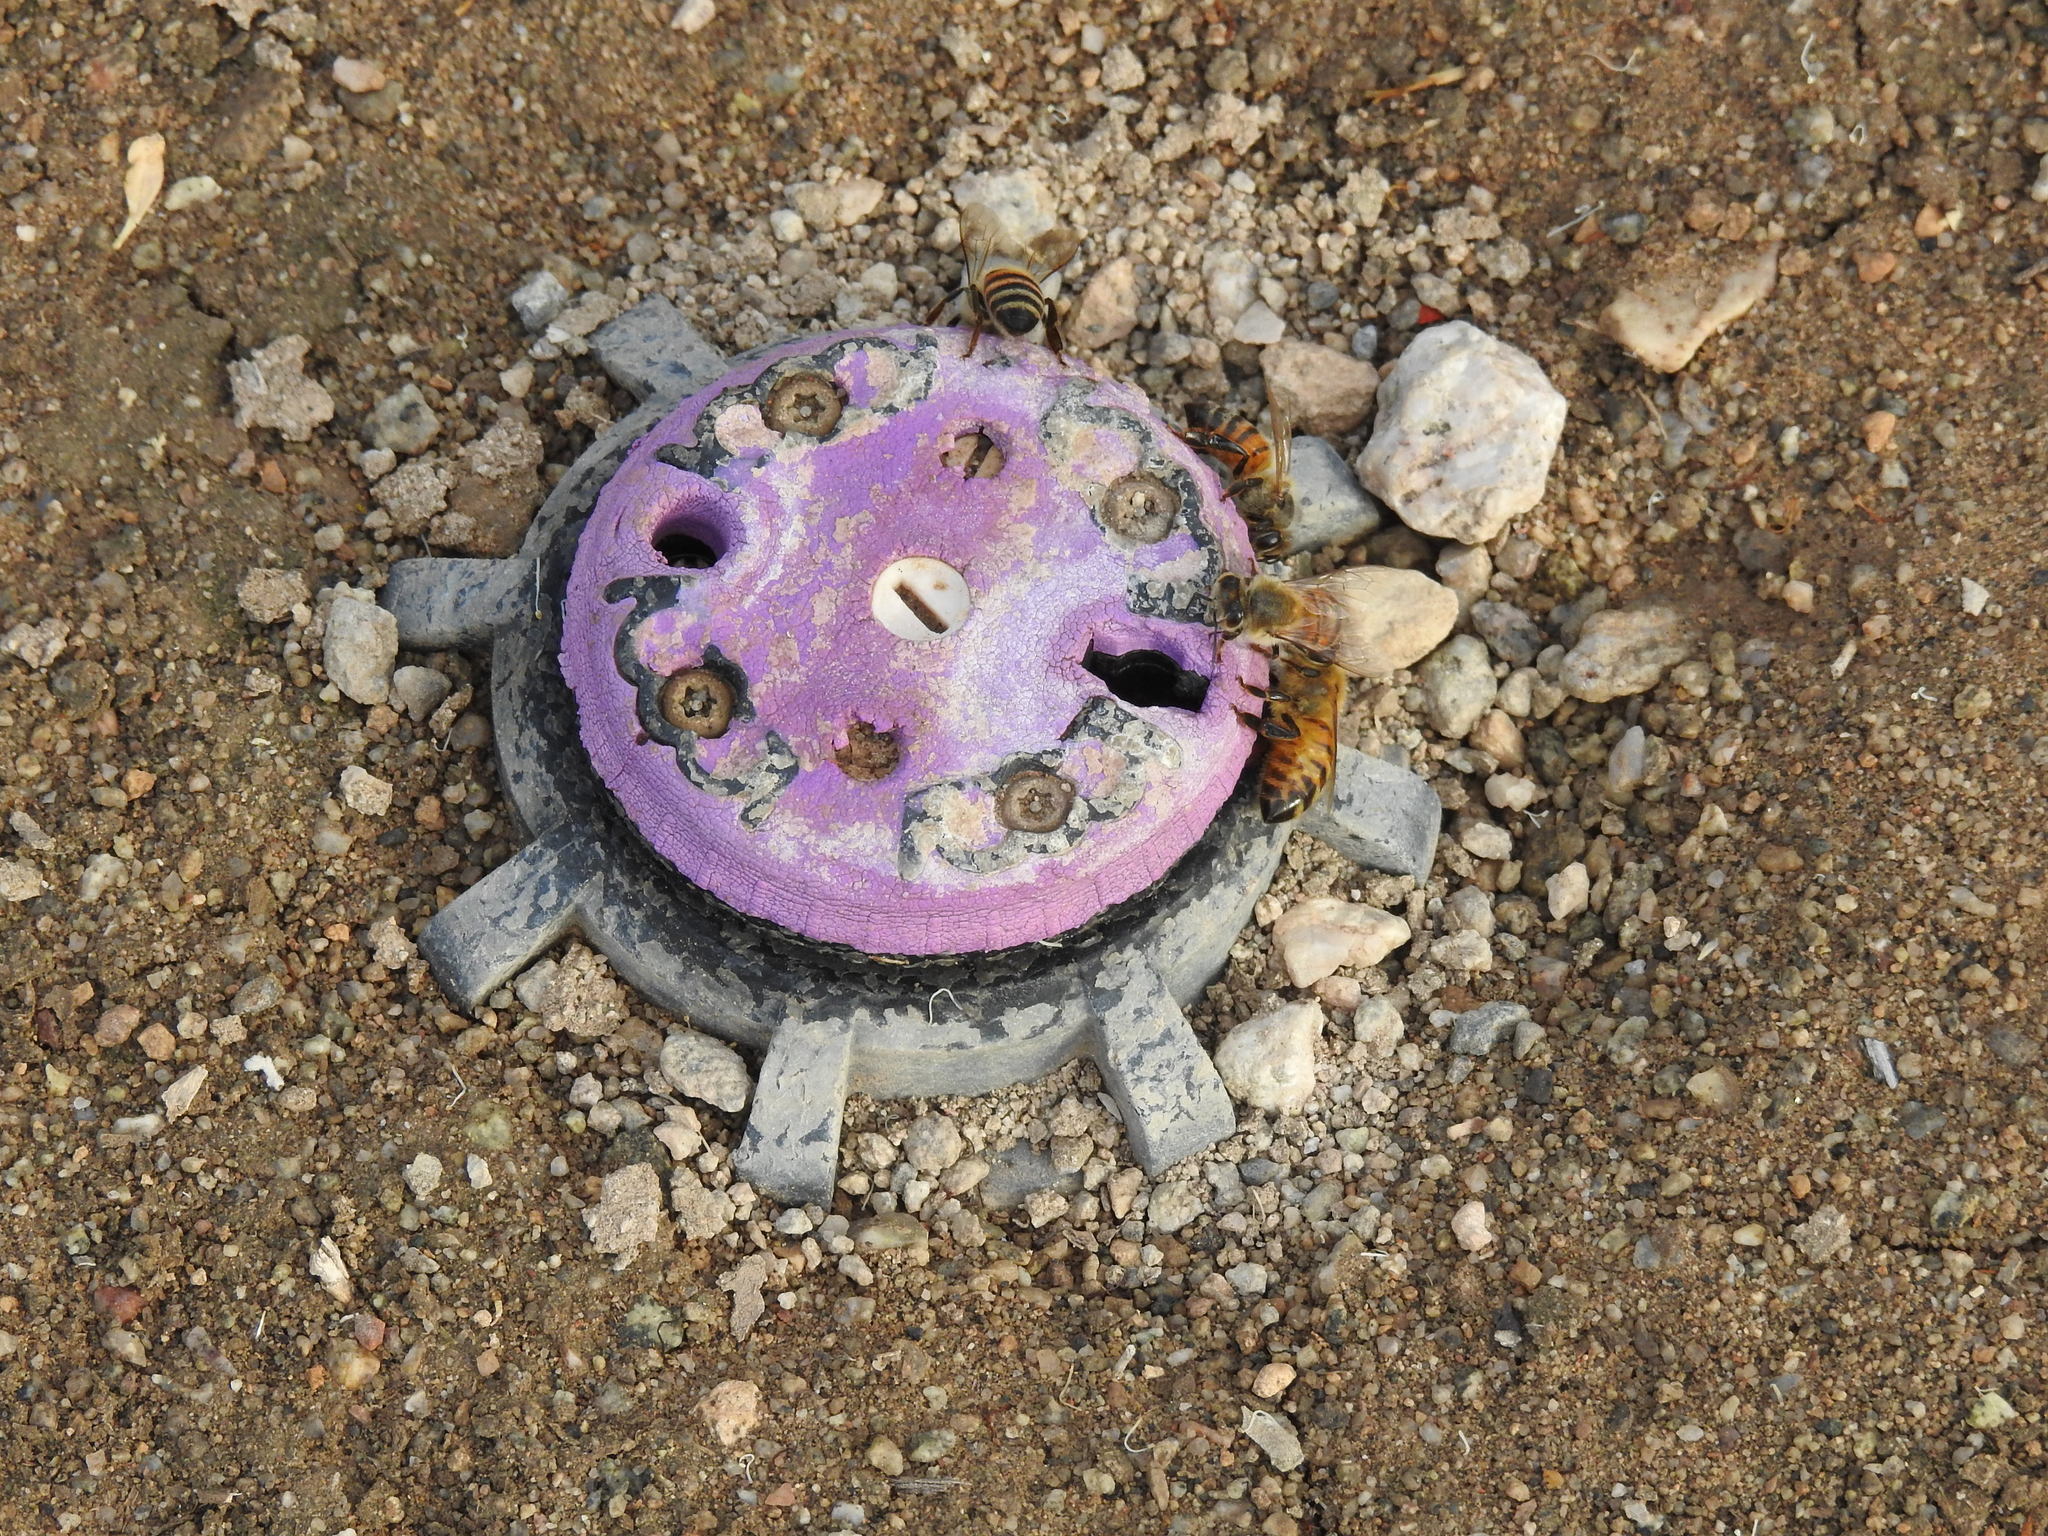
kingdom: Animalia
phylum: Arthropoda
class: Insecta
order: Hymenoptera
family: Apidae
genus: Apis
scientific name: Apis mellifera
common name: Honey bee
